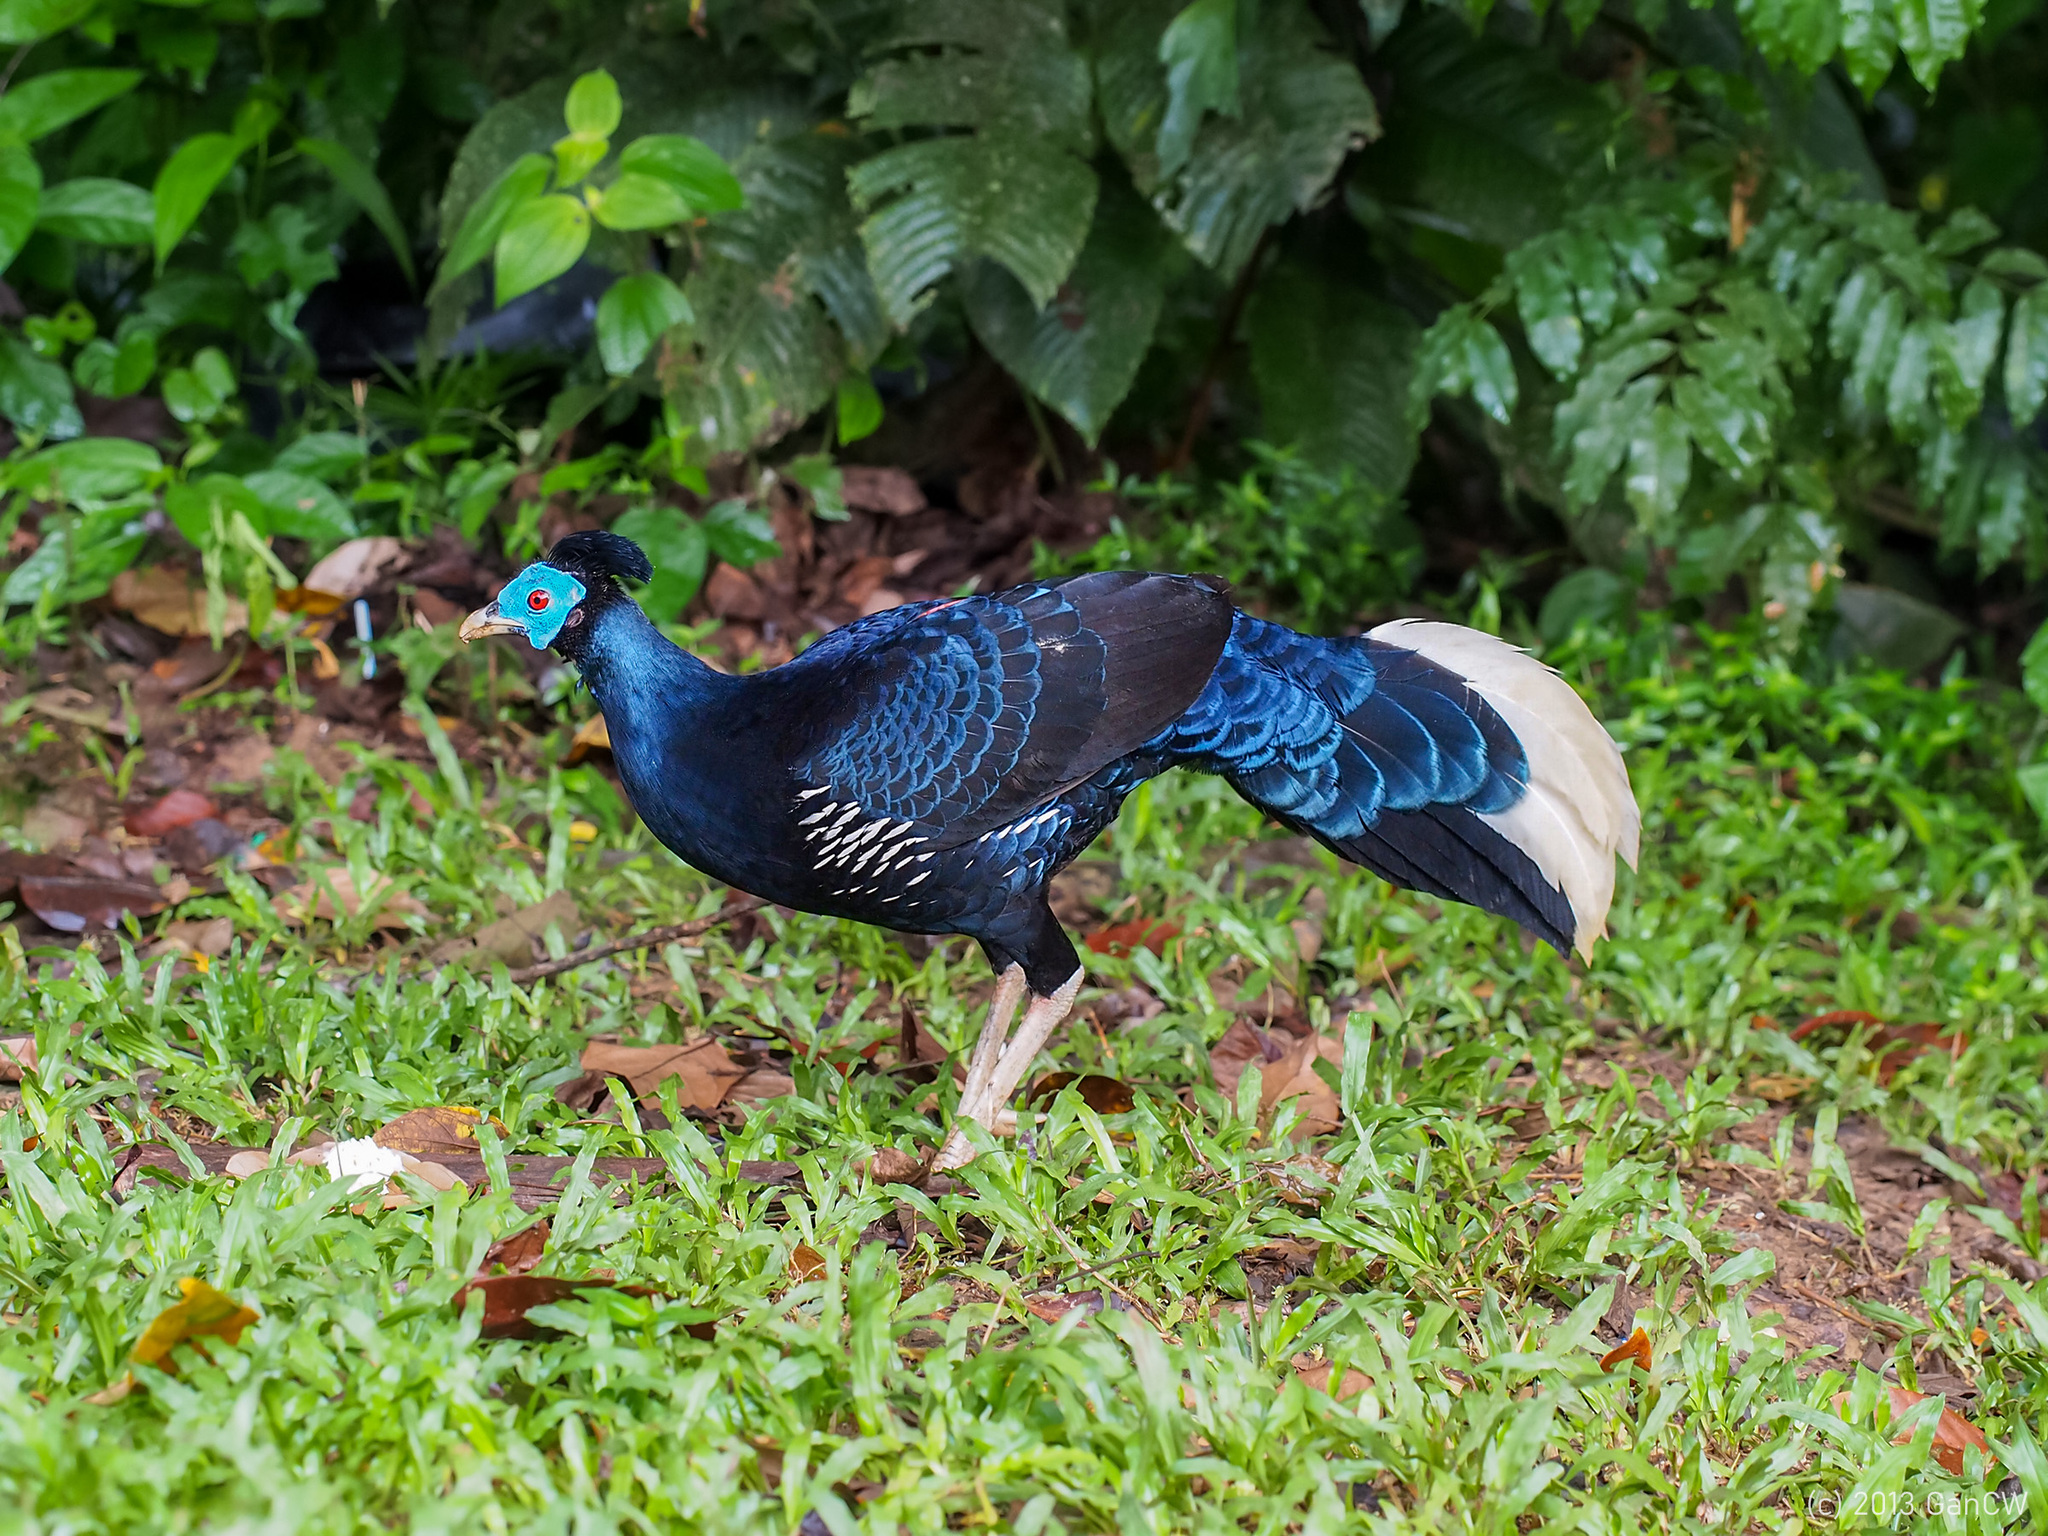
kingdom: Animalia
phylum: Chordata
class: Aves
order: Galliformes
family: Phasianidae
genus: Lophura
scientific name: Lophura ignita
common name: Crested fireback
